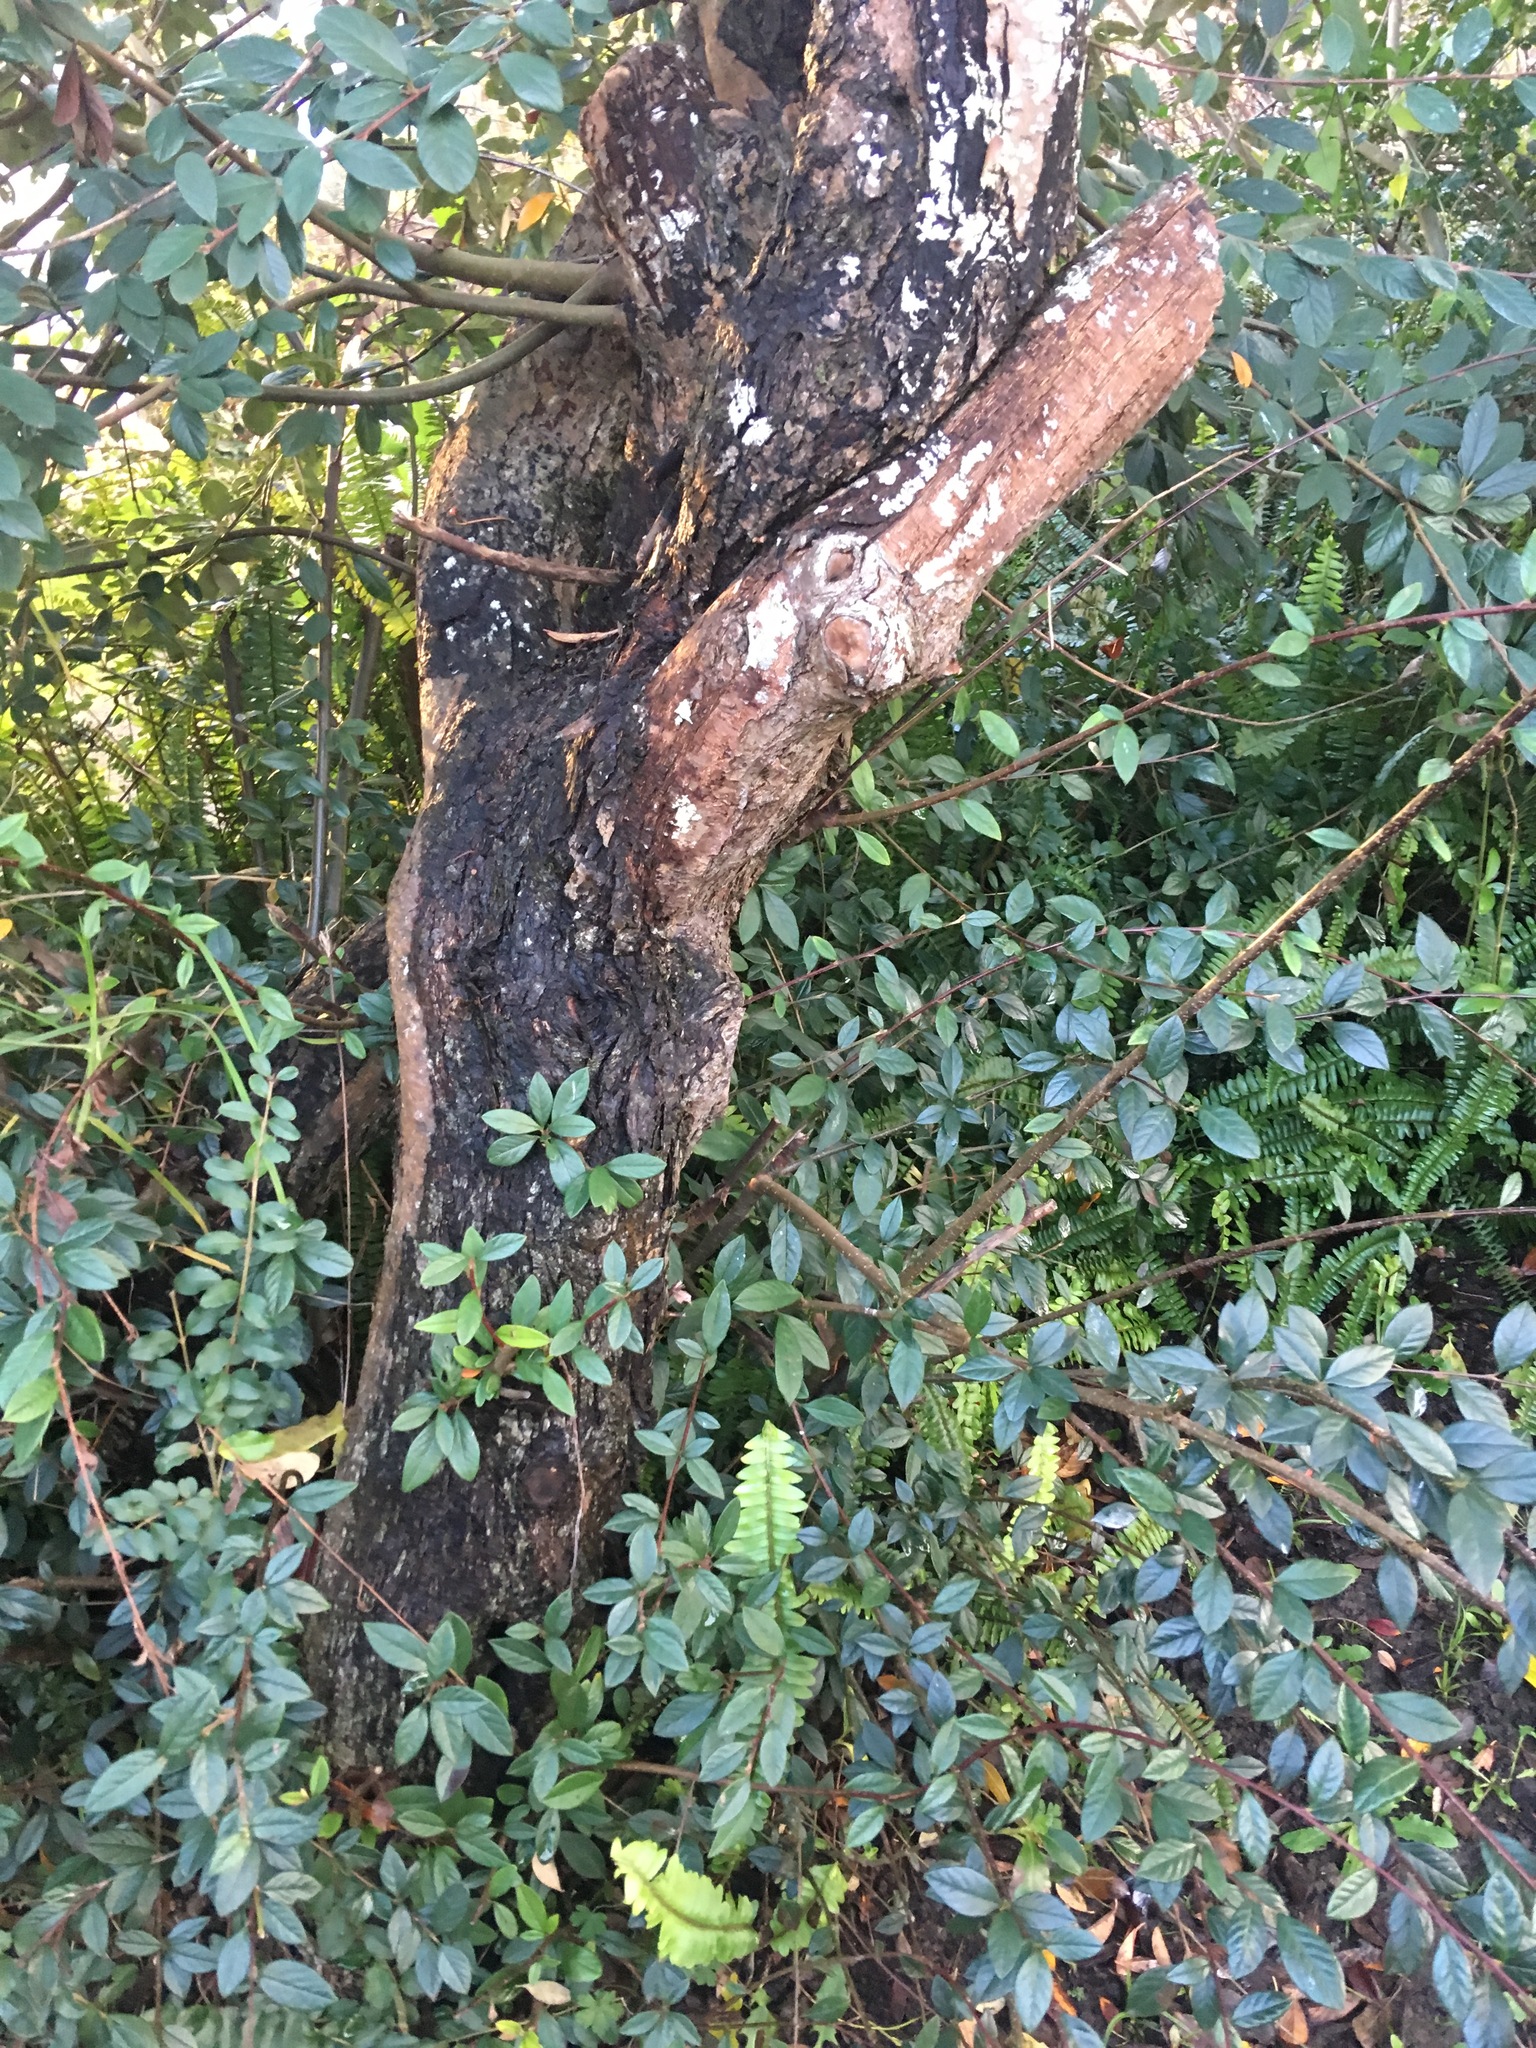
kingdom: Plantae
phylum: Tracheophyta
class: Magnoliopsida
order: Rosales
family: Rosaceae
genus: Cotoneaster
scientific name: Cotoneaster coriaceus
